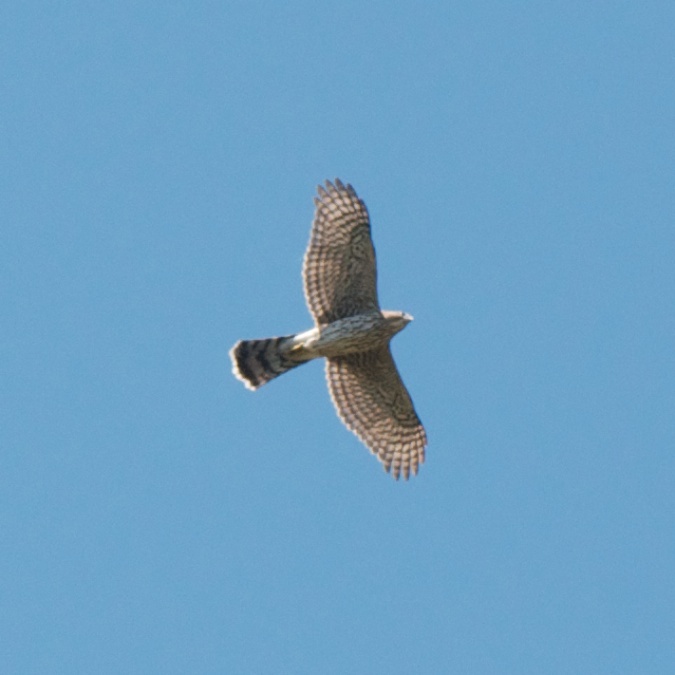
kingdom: Animalia
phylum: Chordata
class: Aves
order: Accipitriformes
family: Accipitridae
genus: Accipiter
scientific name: Accipiter cooperii
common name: Cooper's hawk
